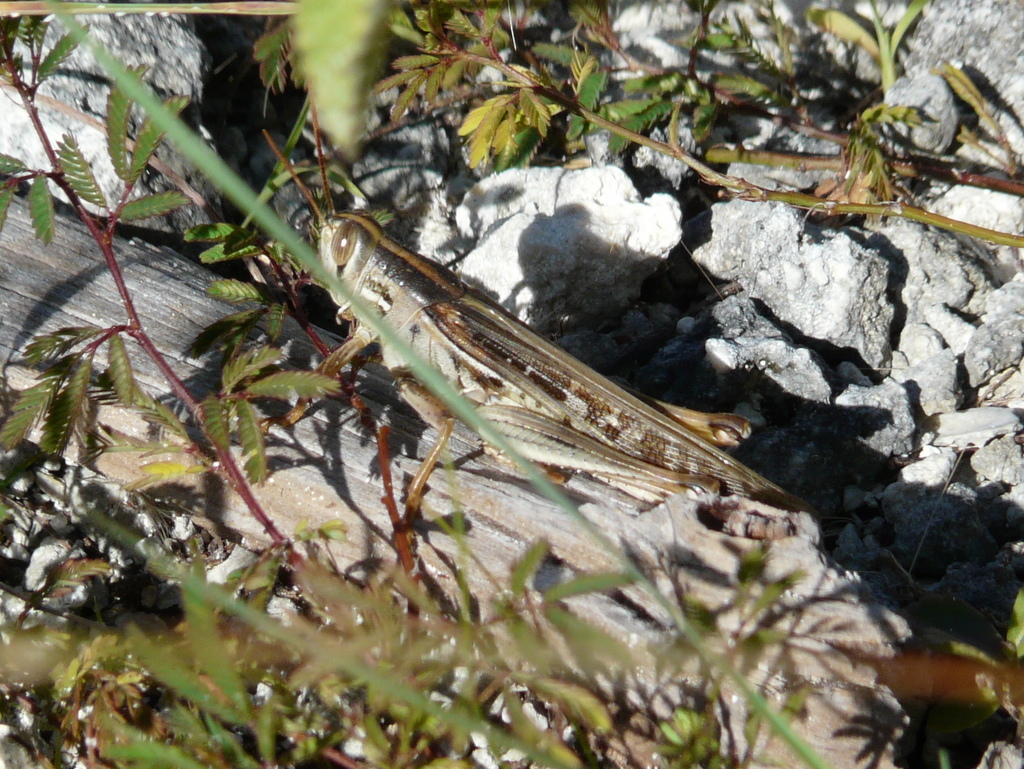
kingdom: Animalia
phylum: Arthropoda
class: Insecta
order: Orthoptera
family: Acrididae
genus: Schistocerca
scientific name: Schistocerca serialis
